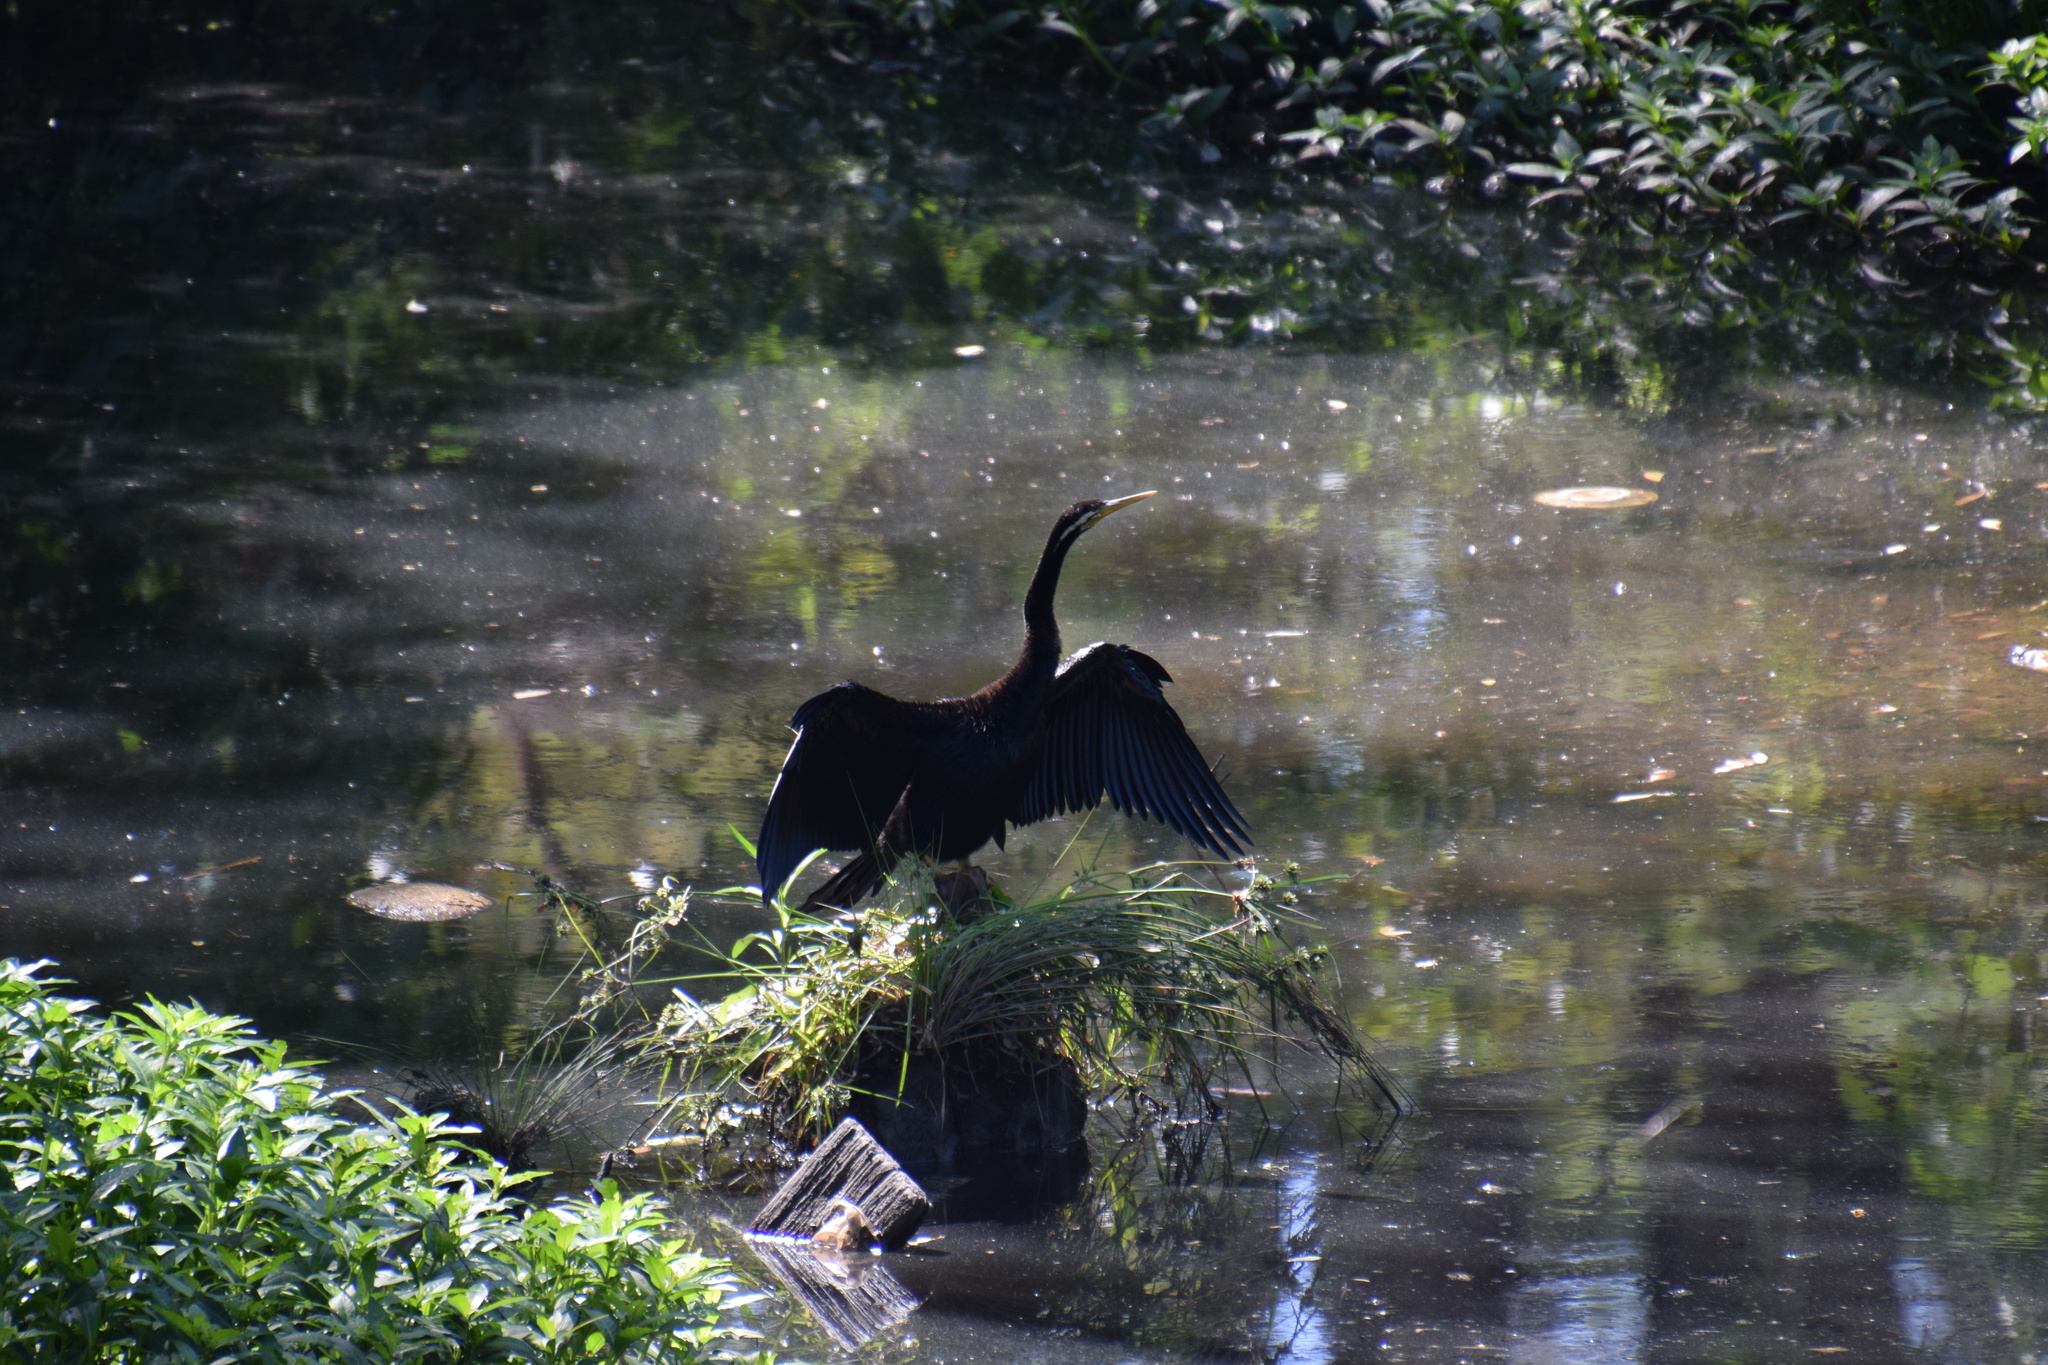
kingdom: Animalia
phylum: Chordata
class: Aves
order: Suliformes
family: Anhingidae
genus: Anhinga
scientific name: Anhinga novaehollandiae
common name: Australasian darter
